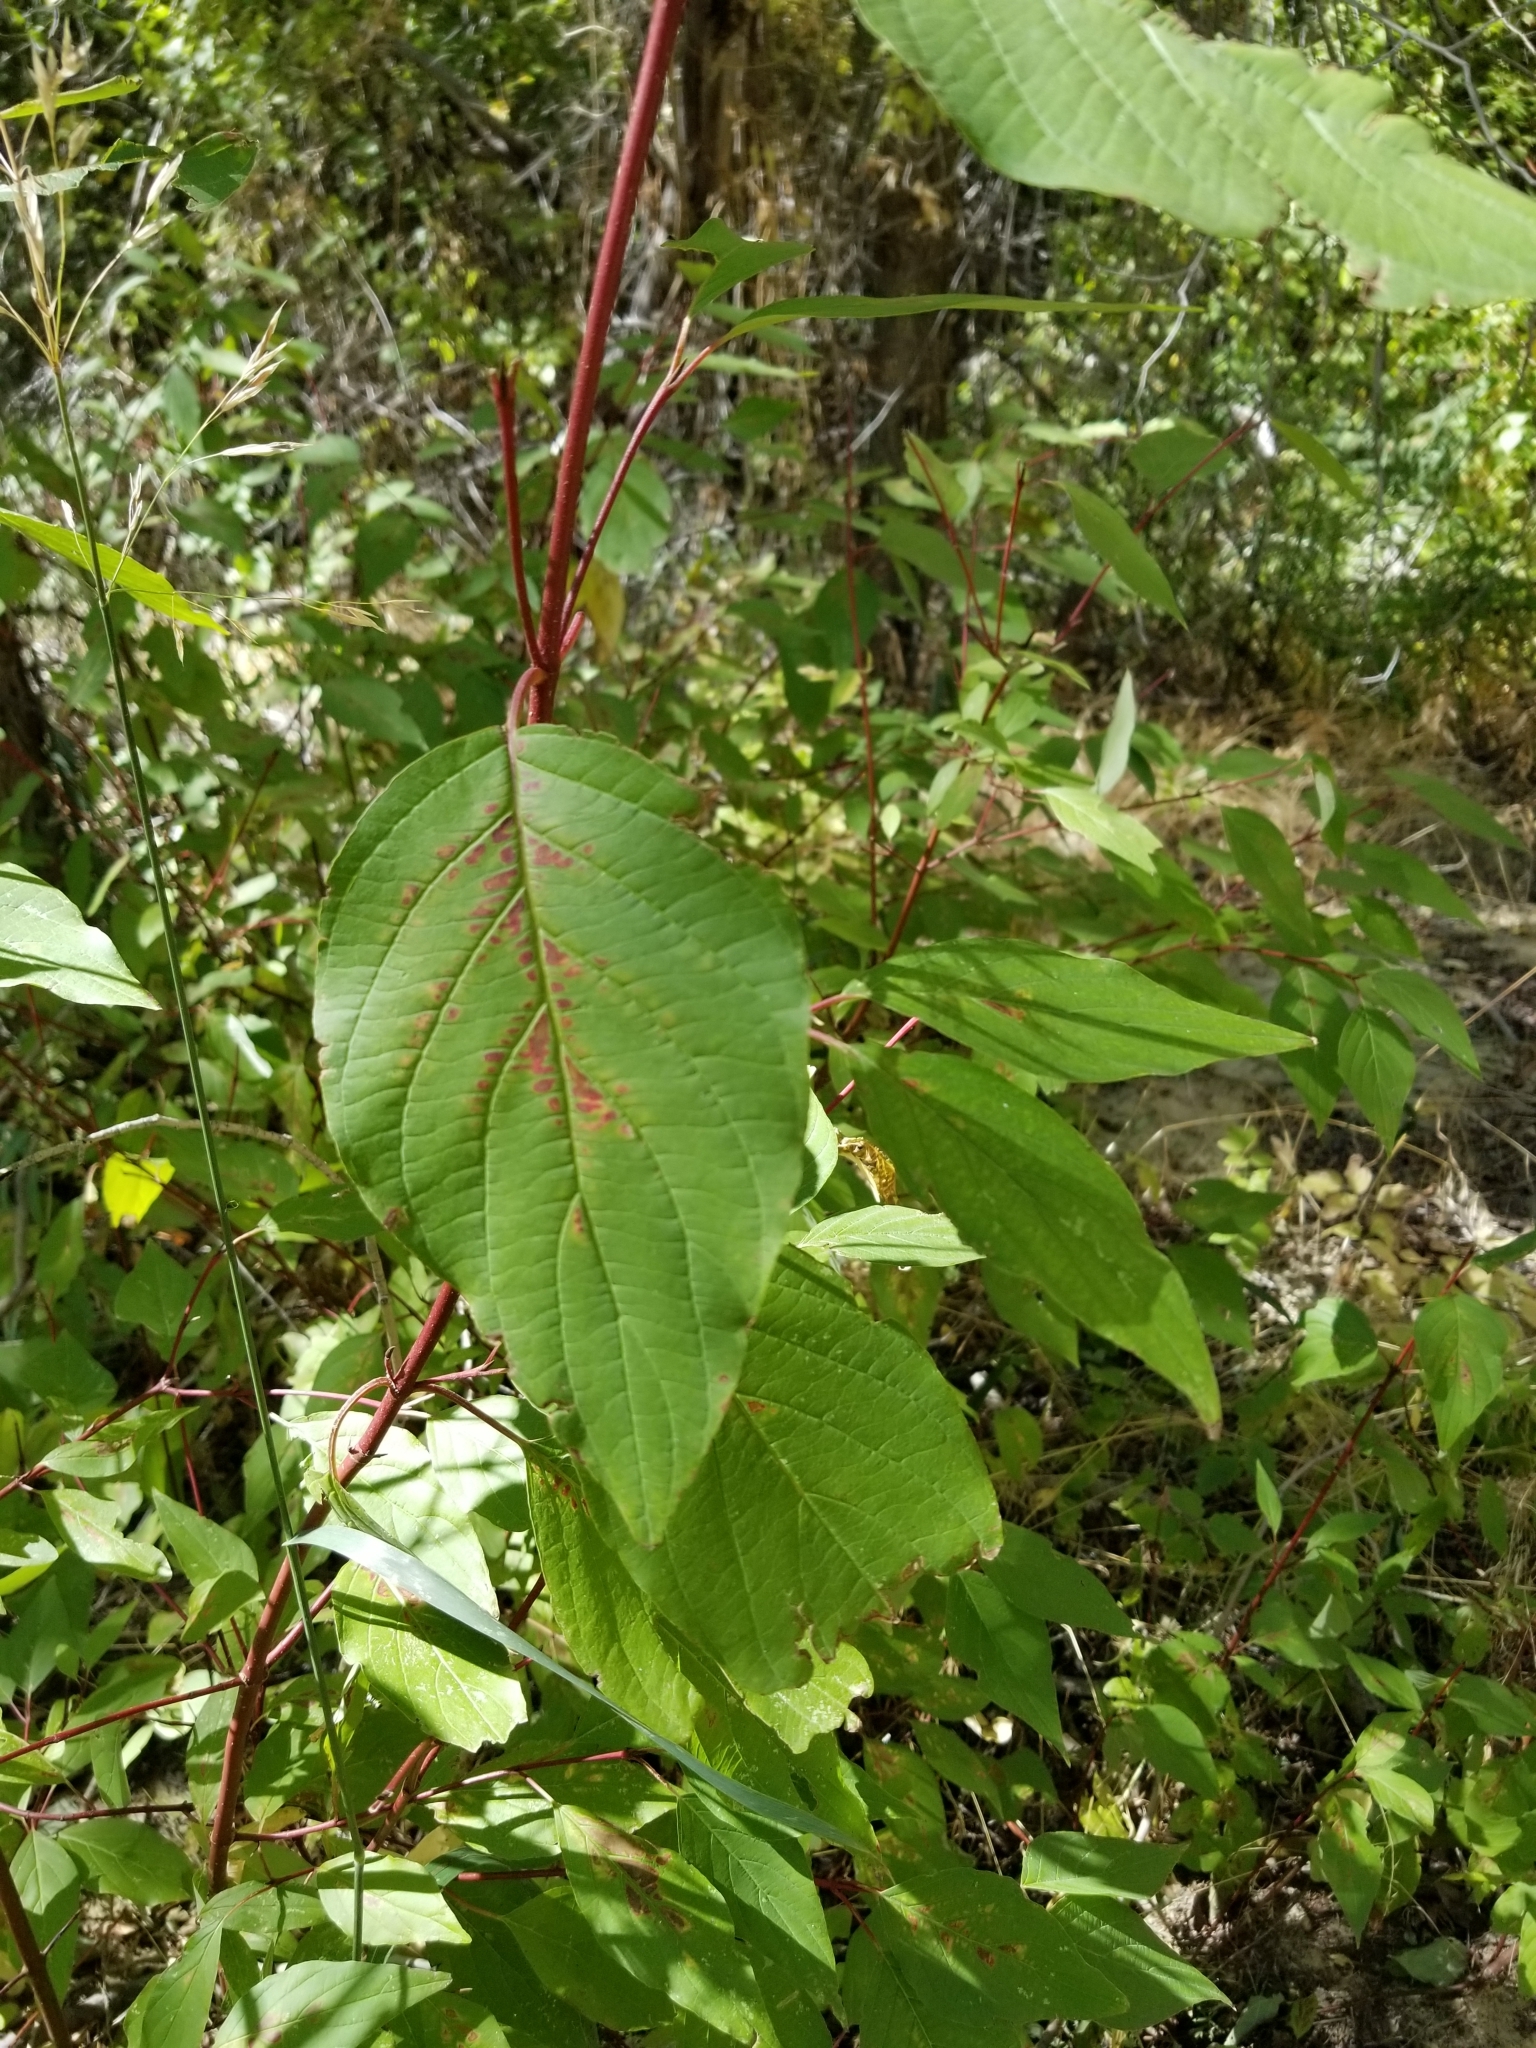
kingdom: Plantae
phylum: Tracheophyta
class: Magnoliopsida
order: Cornales
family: Cornaceae
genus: Cornus
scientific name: Cornus sericea
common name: Red-osier dogwood
